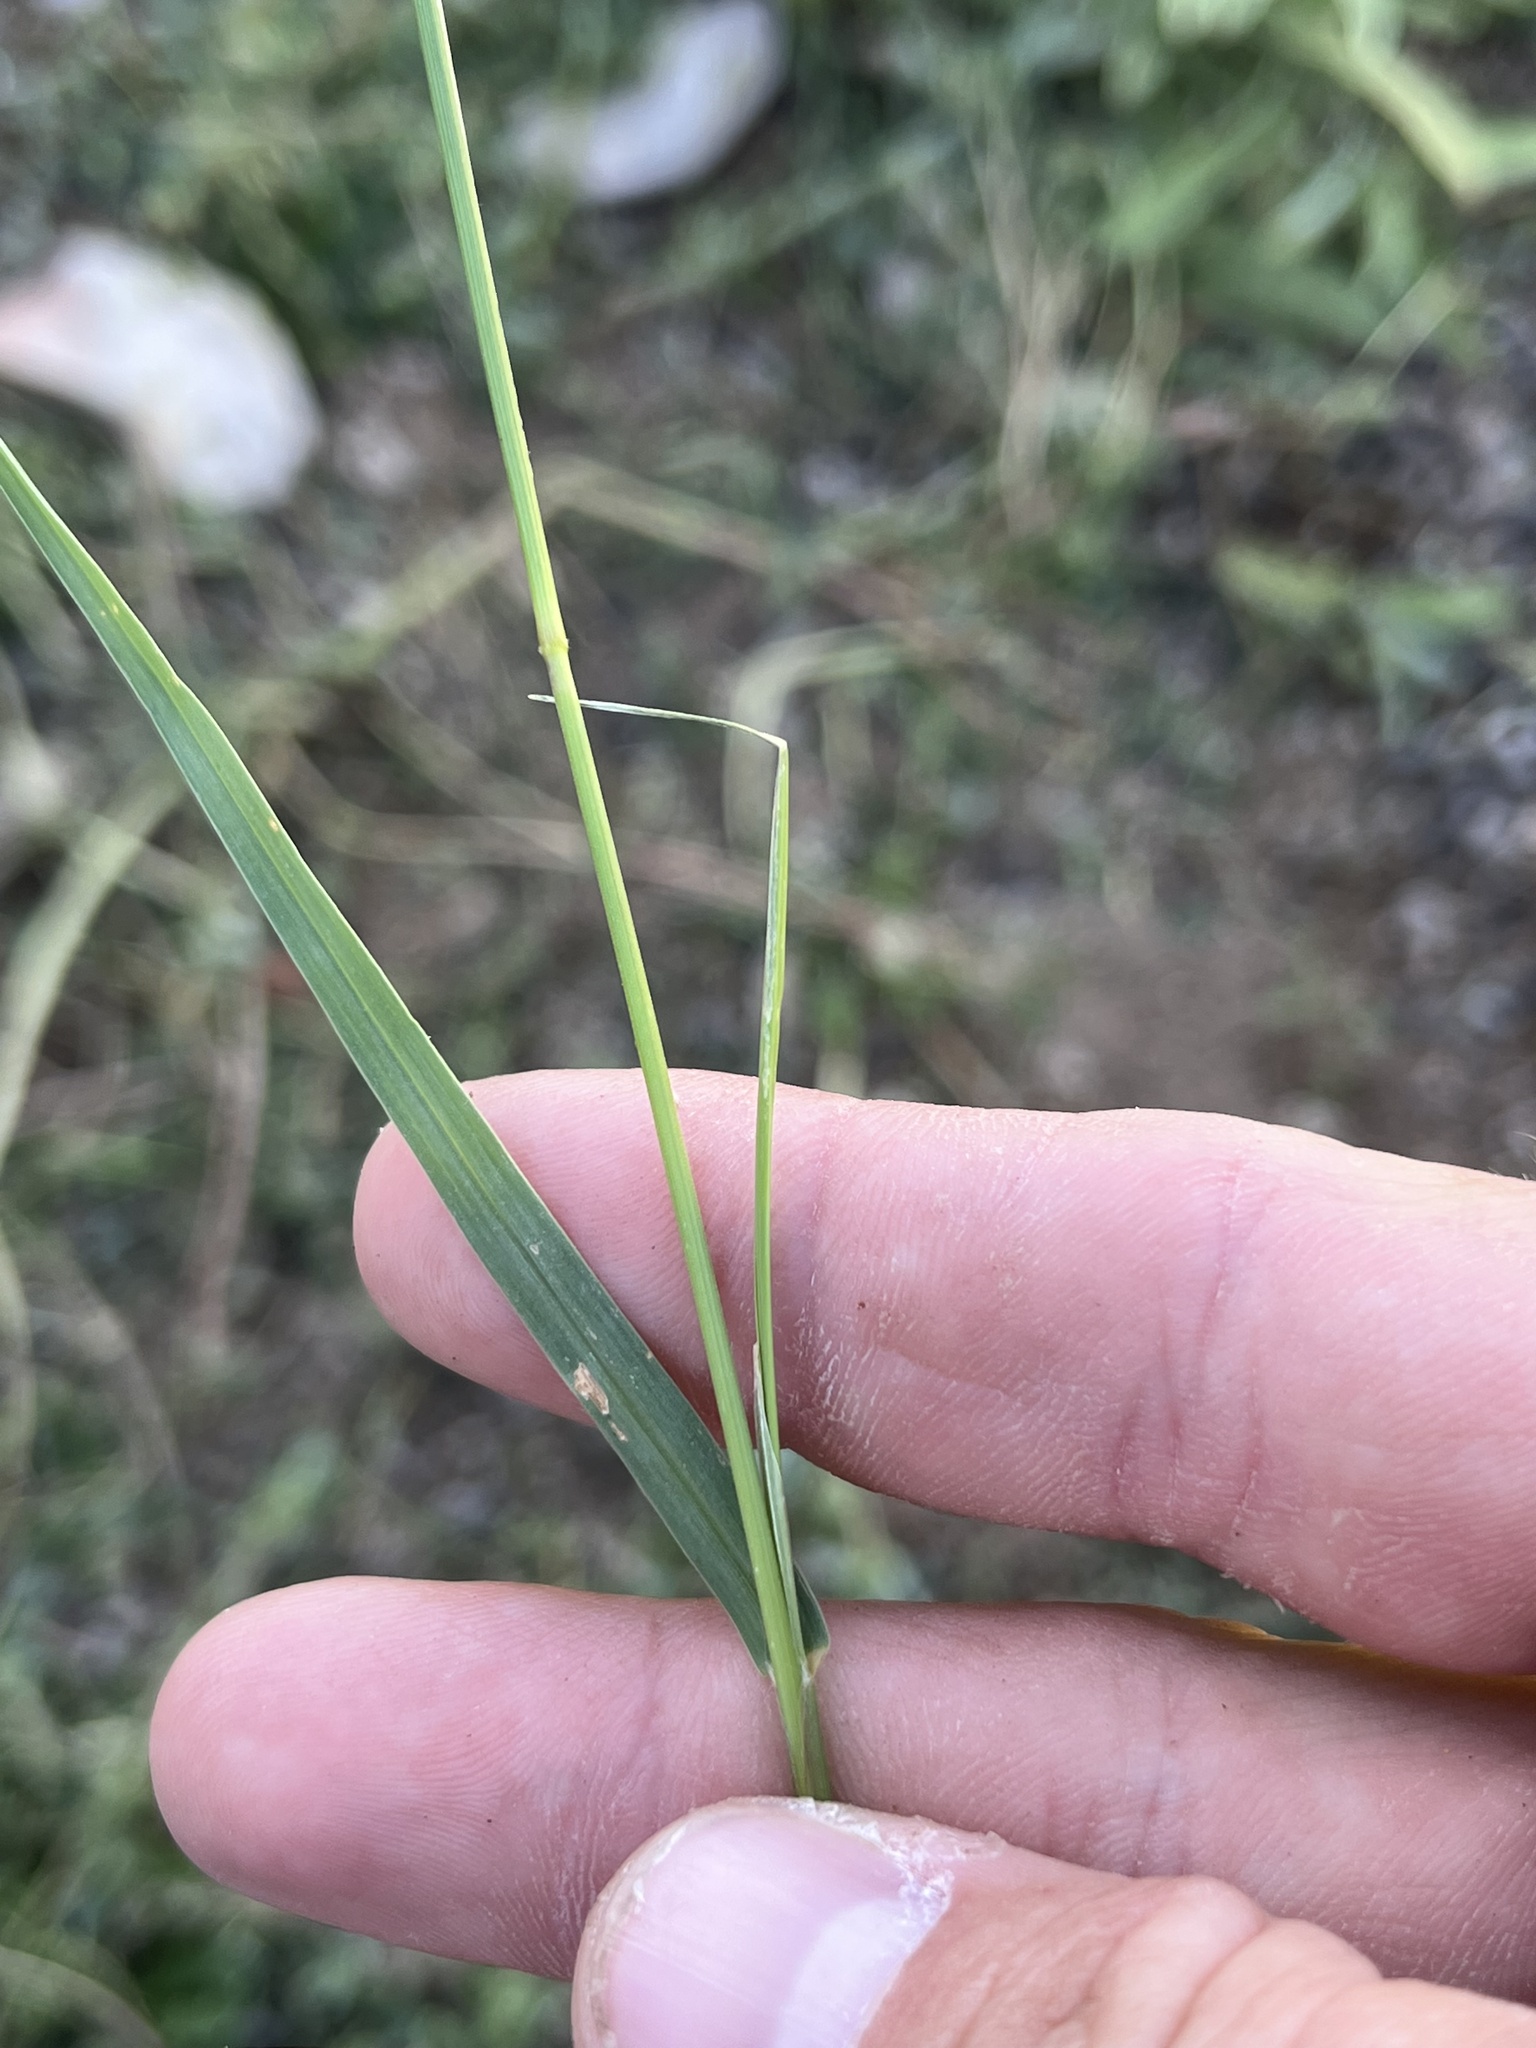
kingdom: Plantae
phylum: Tracheophyta
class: Liliopsida
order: Poales
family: Poaceae
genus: Setaria
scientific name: Setaria leucopila
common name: Plains bristle grass
